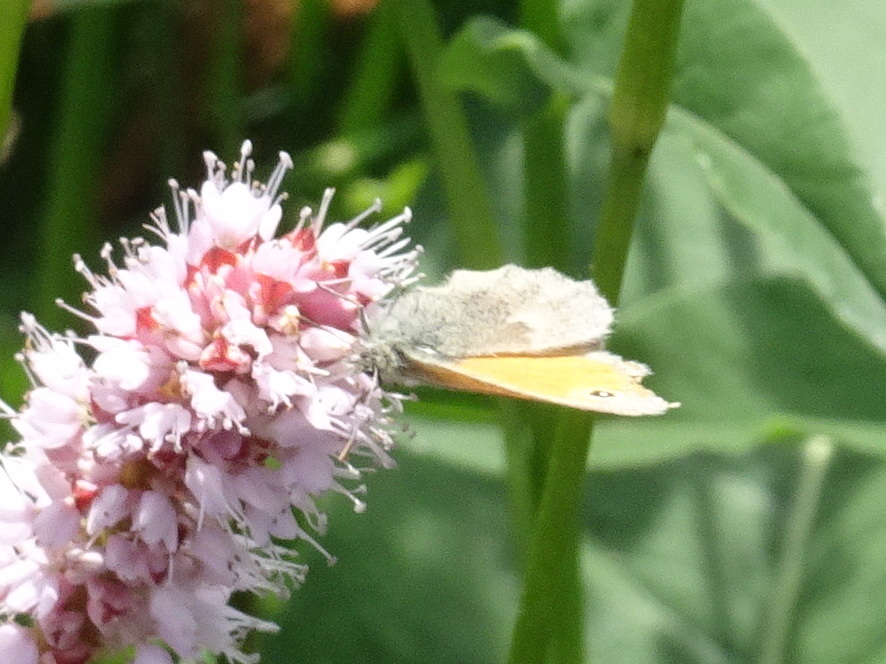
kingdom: Animalia
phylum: Arthropoda
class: Insecta
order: Lepidoptera
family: Nymphalidae
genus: Coenonympha
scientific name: Coenonympha pamphilus
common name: Small heath
